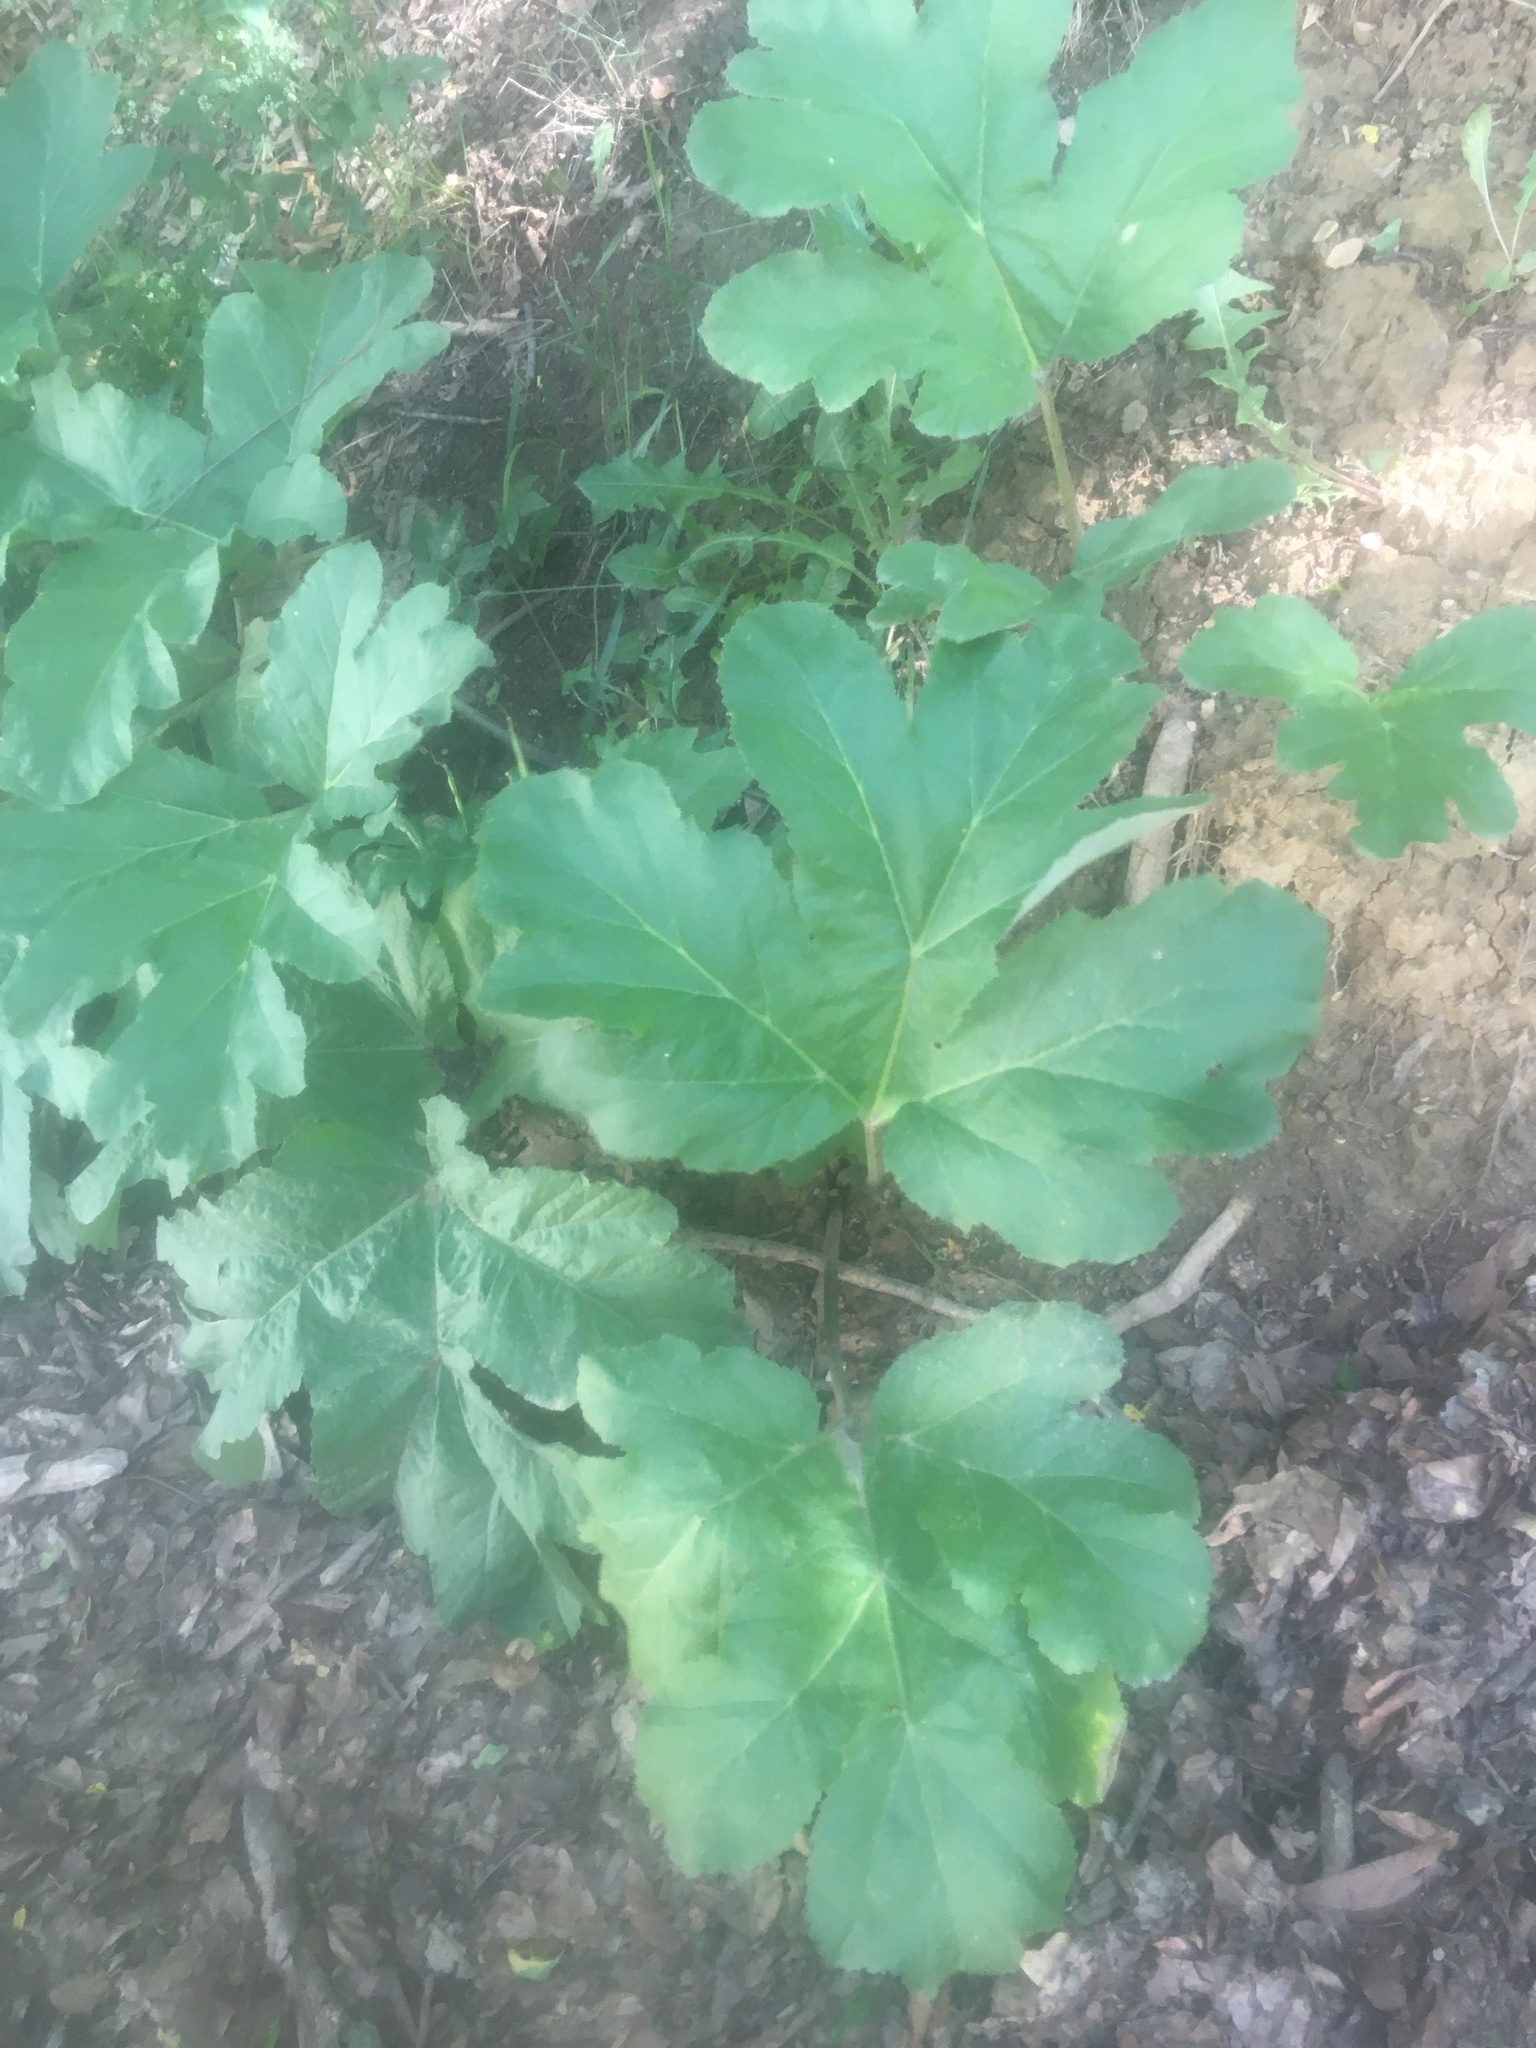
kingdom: Plantae
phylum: Tracheophyta
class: Magnoliopsida
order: Apiales
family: Apiaceae
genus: Heracleum
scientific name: Heracleum stevenii
